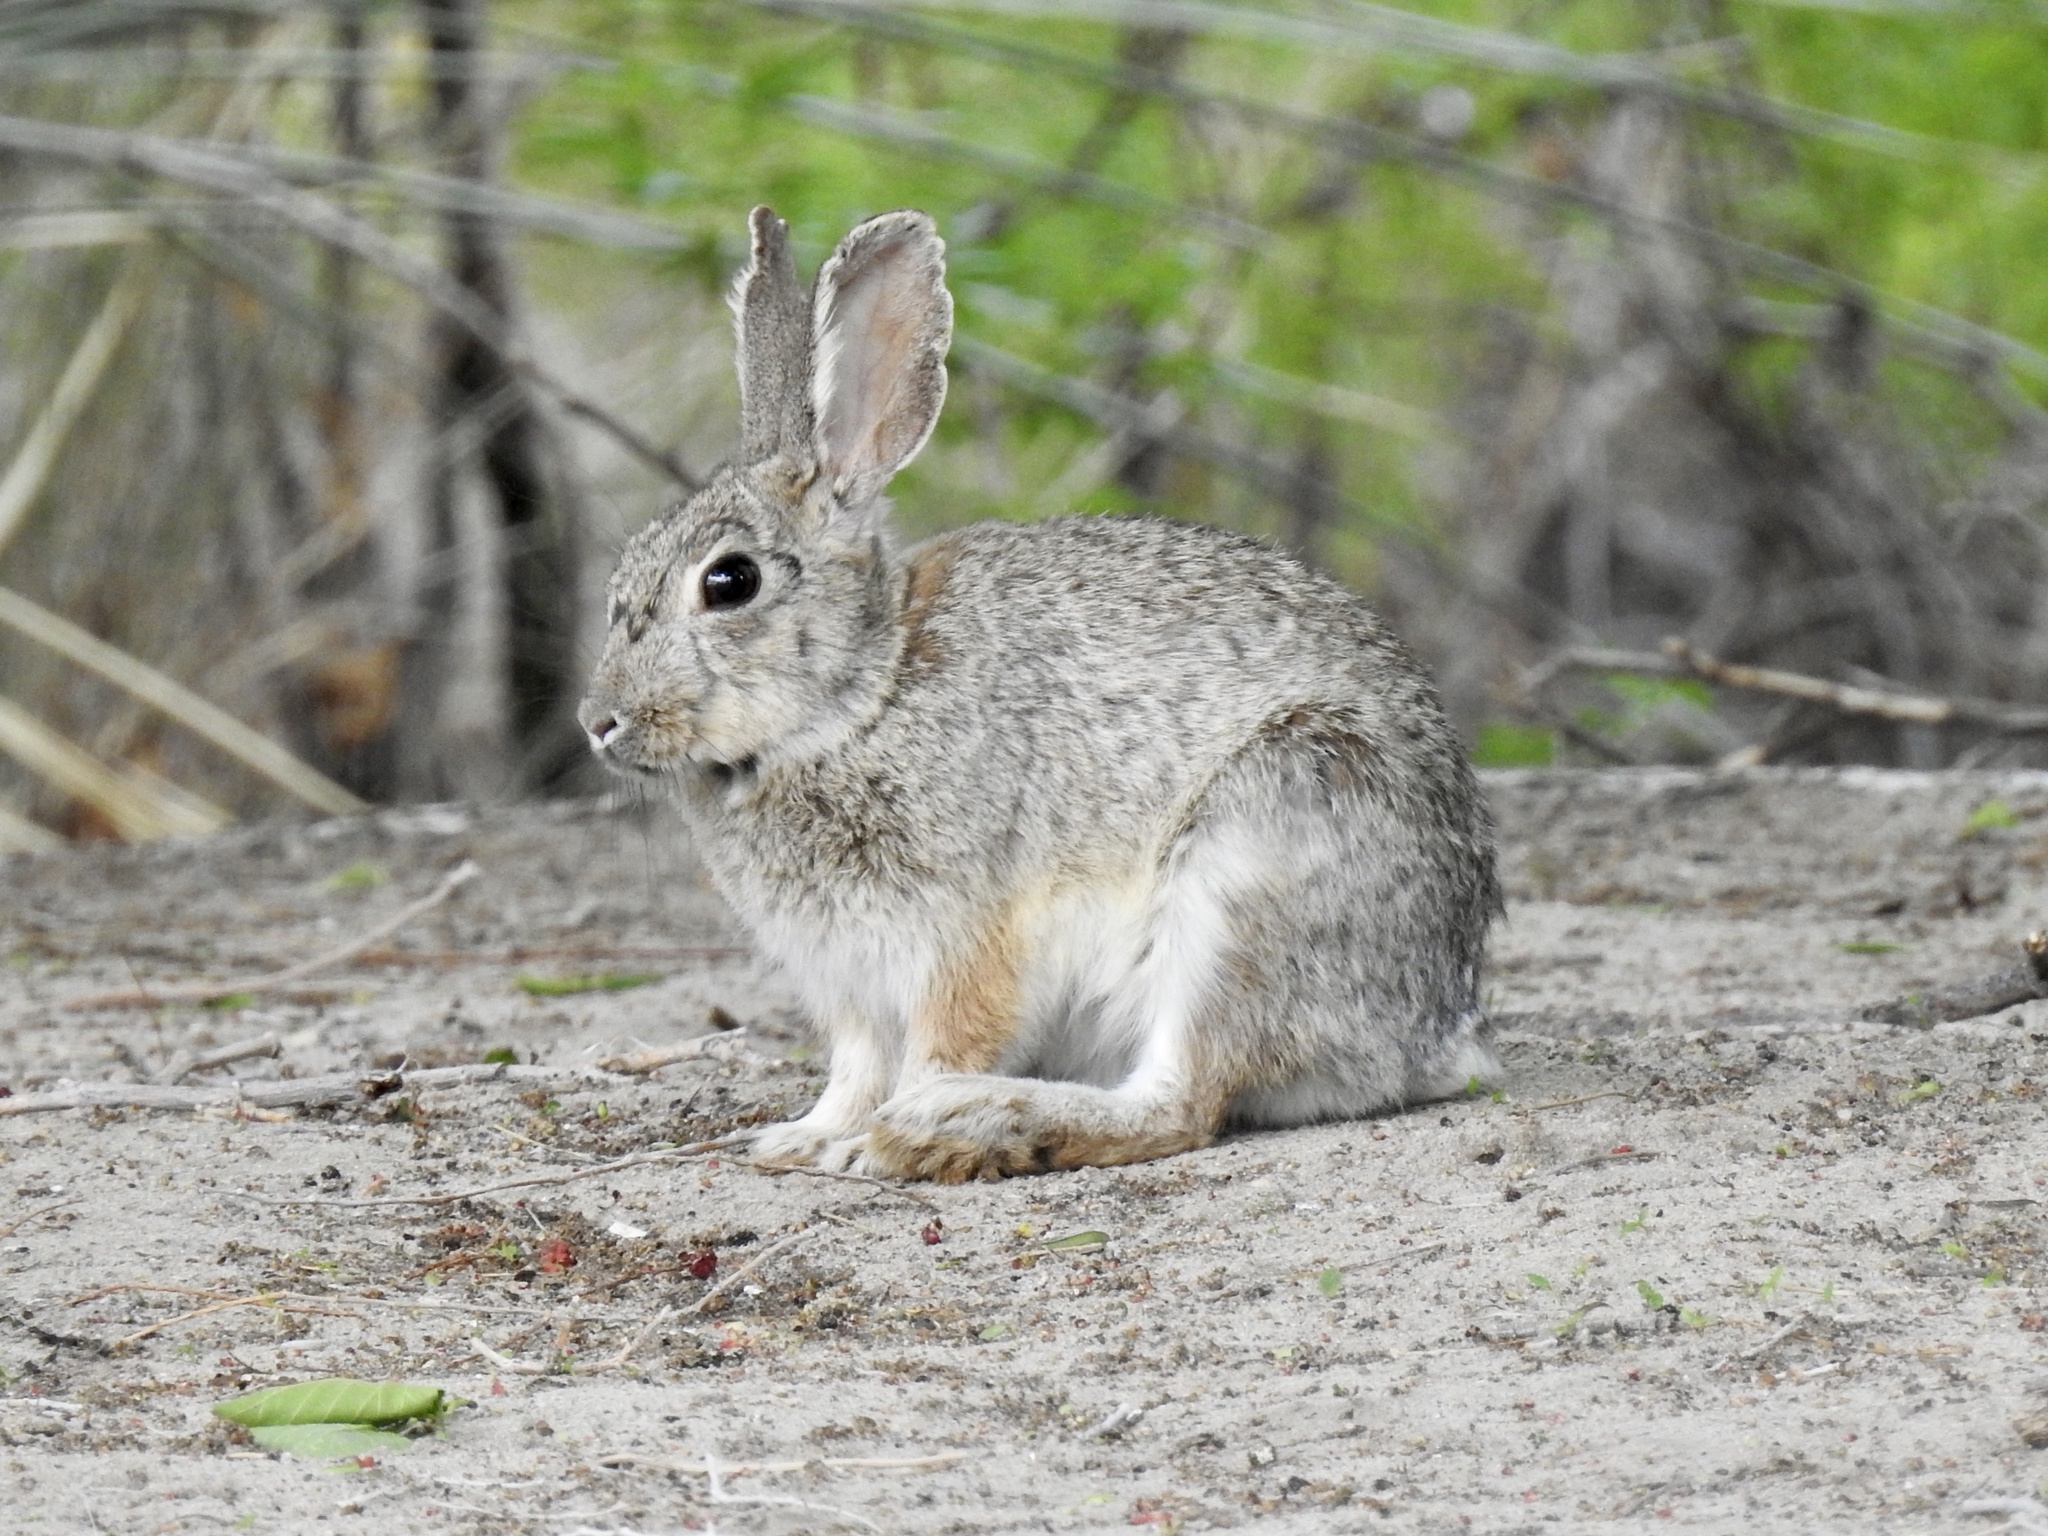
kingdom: Animalia
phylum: Chordata
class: Mammalia
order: Lagomorpha
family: Leporidae
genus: Sylvilagus
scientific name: Sylvilagus audubonii
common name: Desert cottontail
